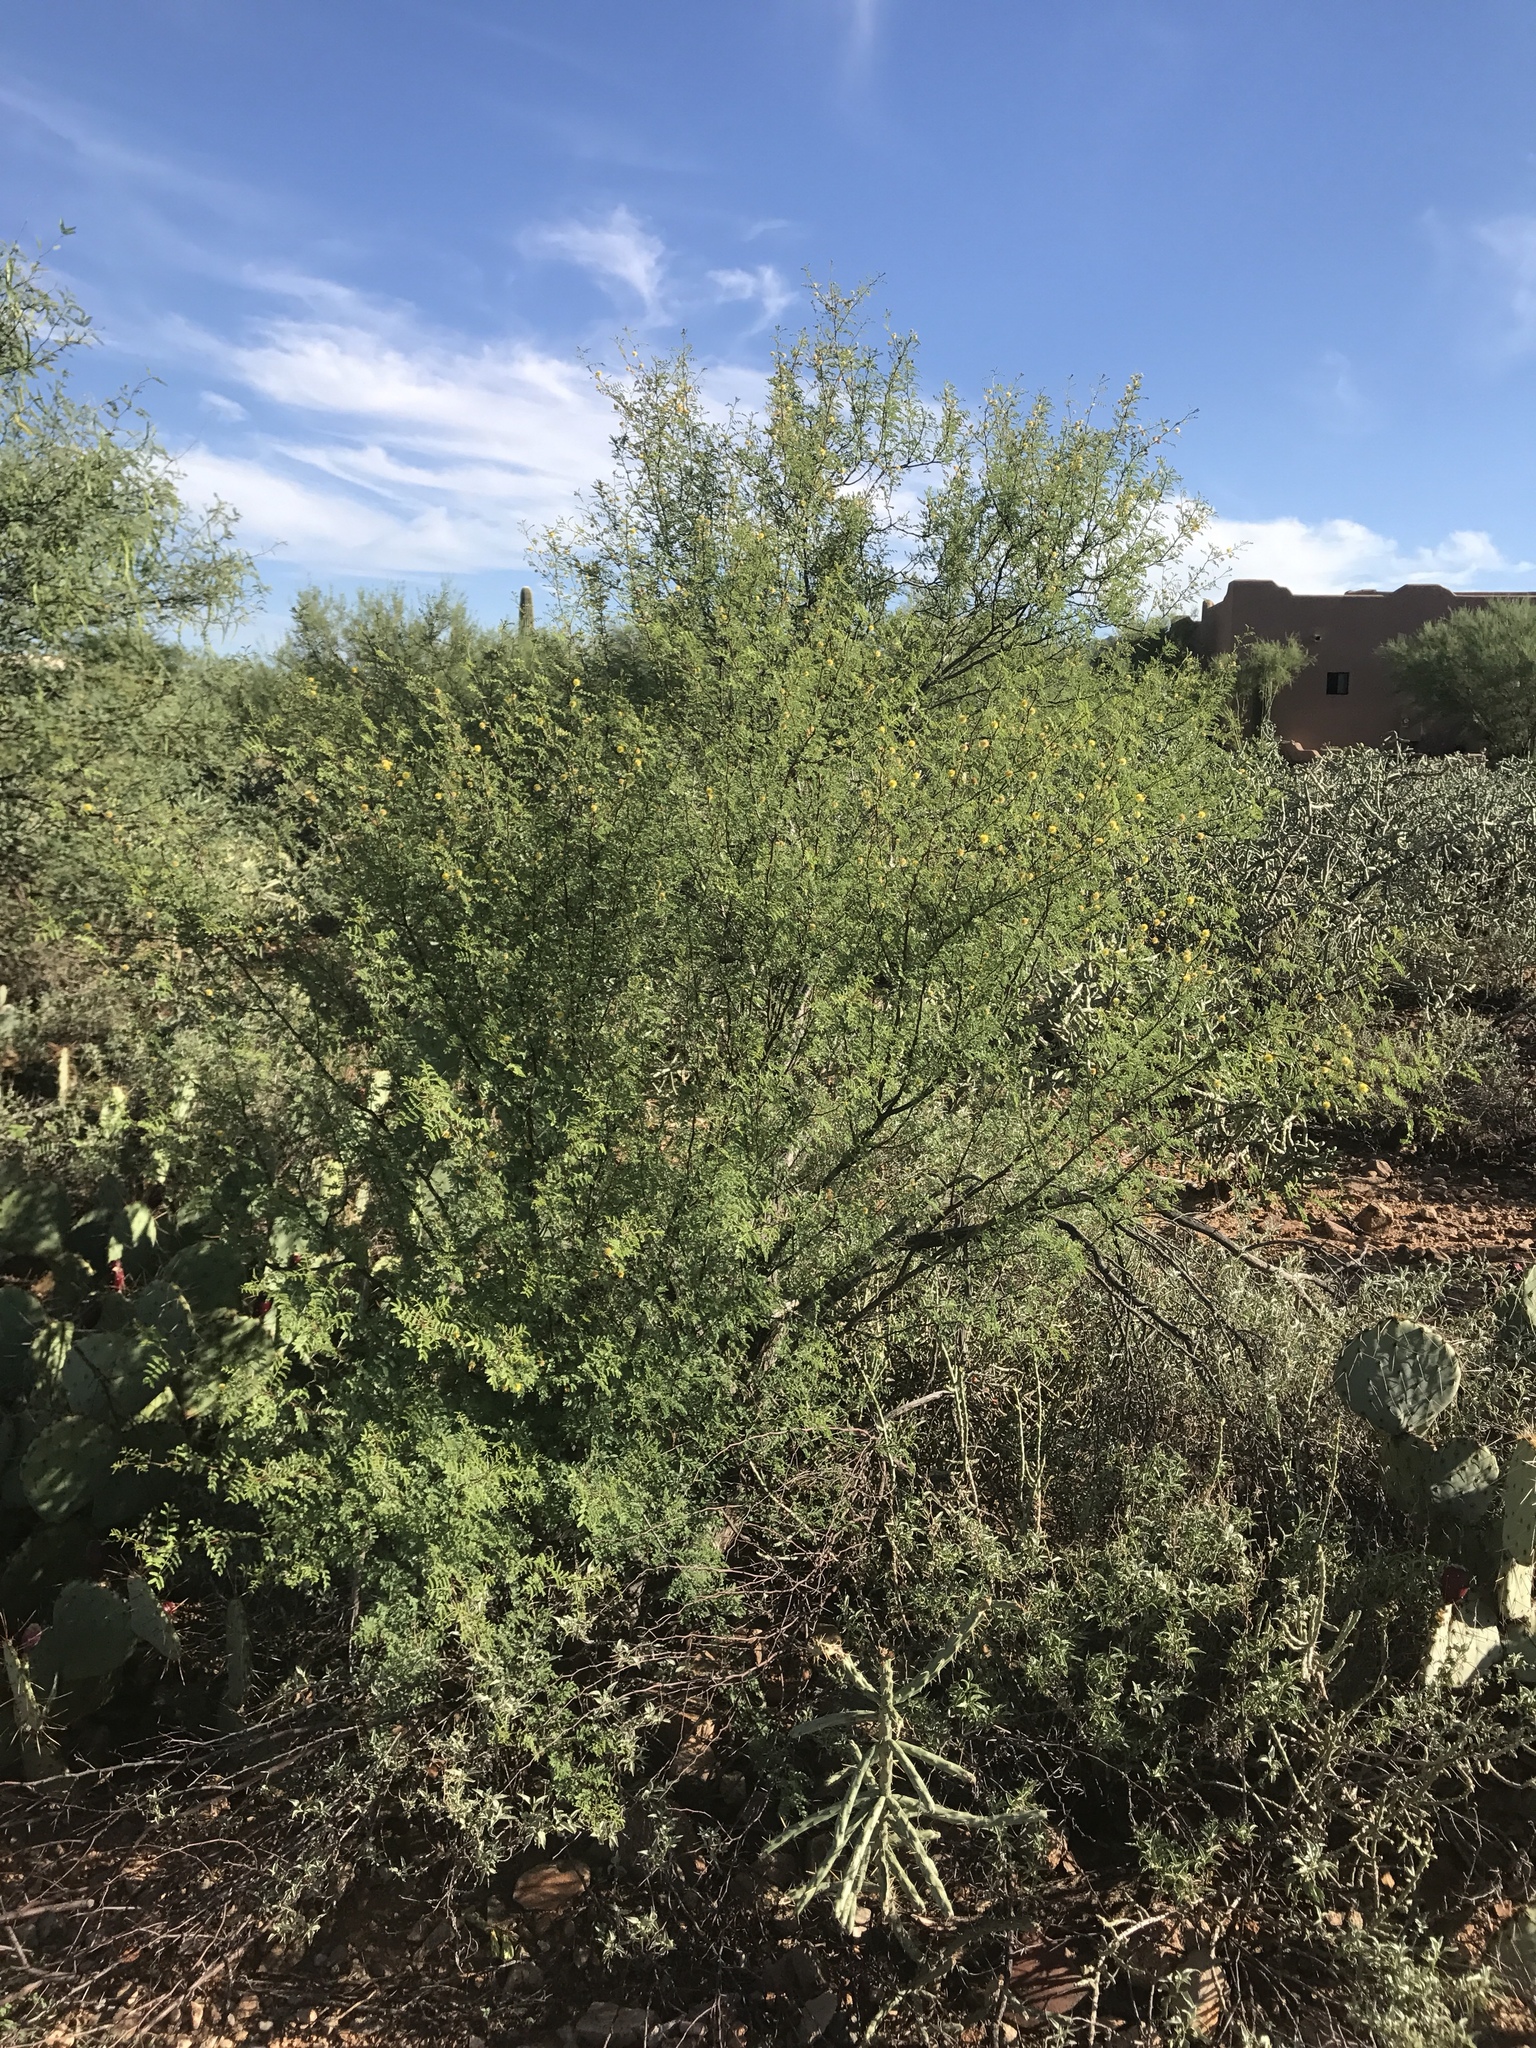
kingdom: Plantae
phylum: Tracheophyta
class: Magnoliopsida
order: Fabales
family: Fabaceae
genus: Vachellia
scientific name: Vachellia constricta
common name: Mescat acacia
